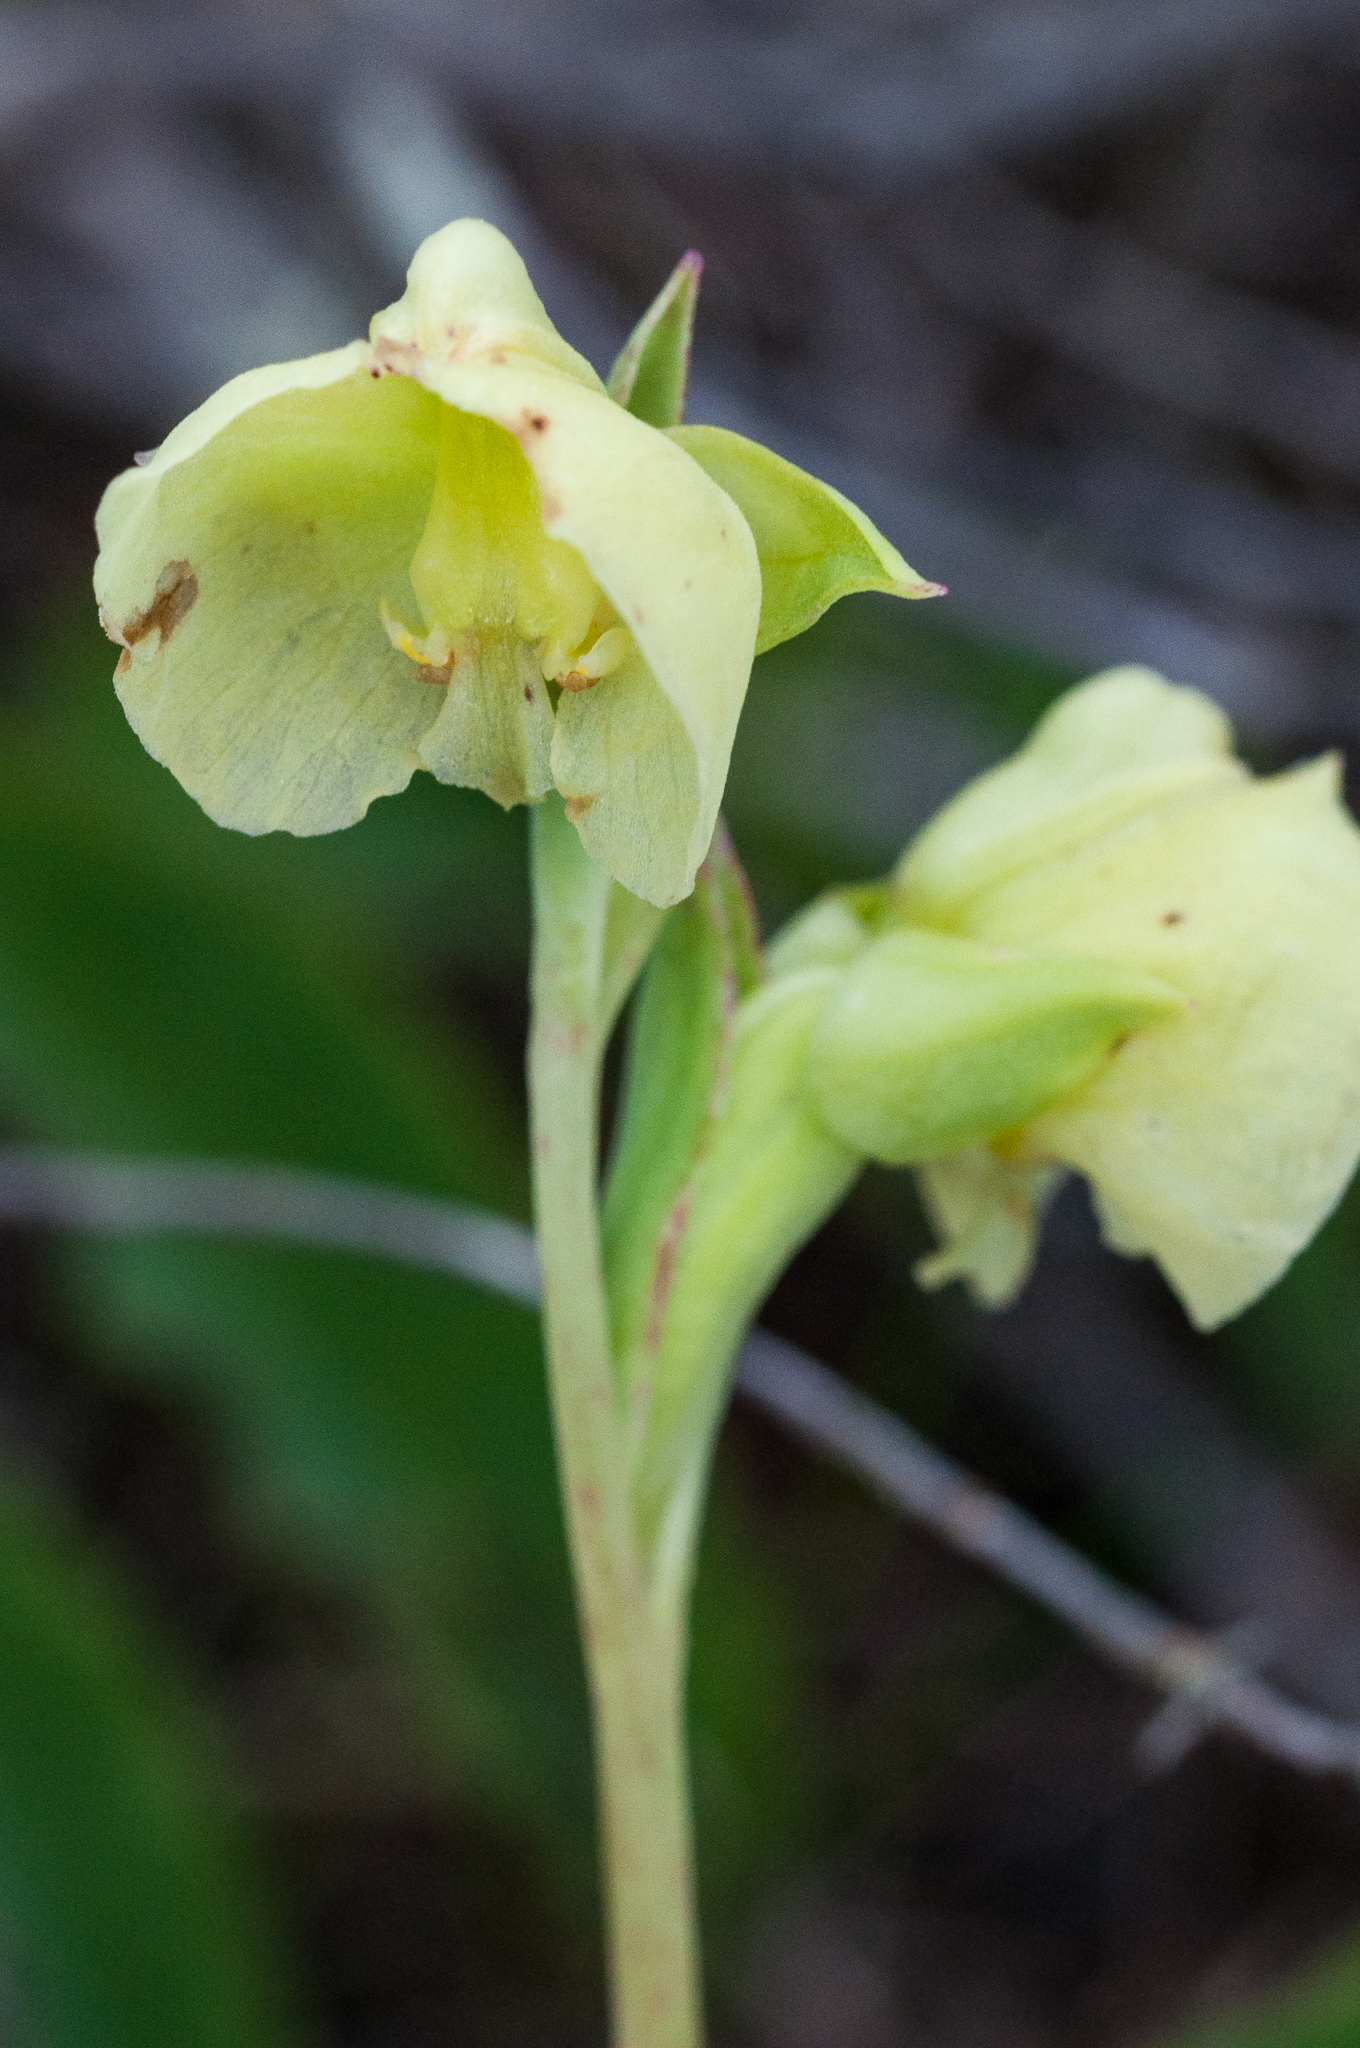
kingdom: Plantae
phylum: Tracheophyta
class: Liliopsida
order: Asparagales
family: Orchidaceae
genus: Pterygodium
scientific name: Pterygodium catholicum
